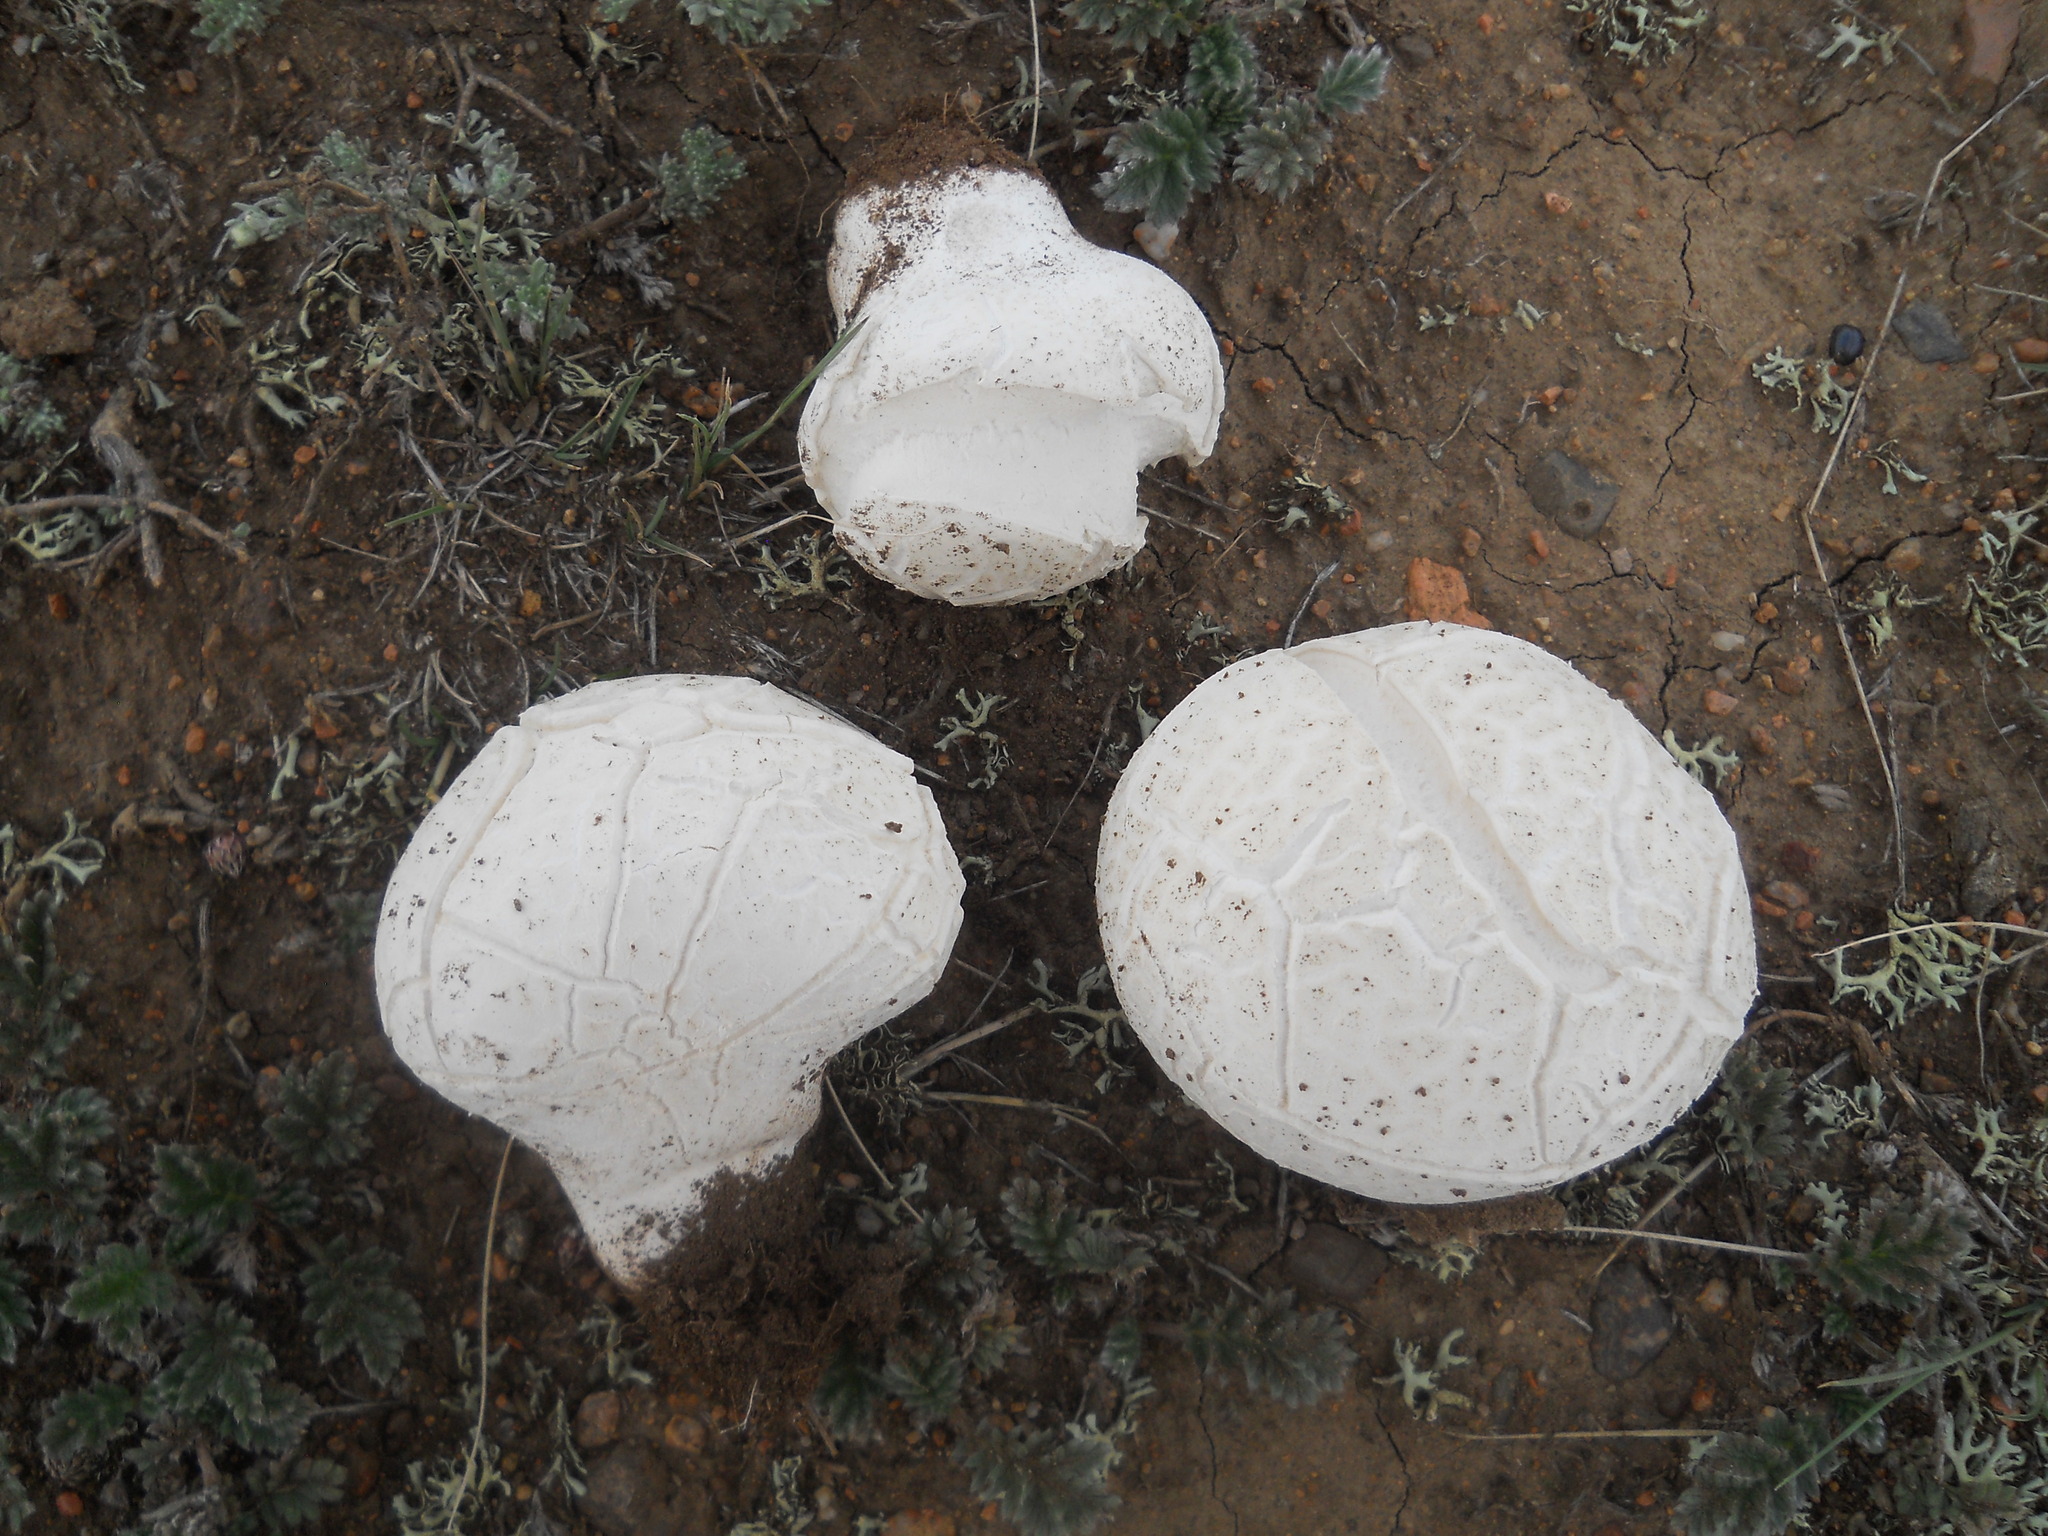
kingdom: Fungi
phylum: Basidiomycota
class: Agaricomycetes
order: Agaricales
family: Lycoperdaceae
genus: Calbovista
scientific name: Calbovista subsculpta
